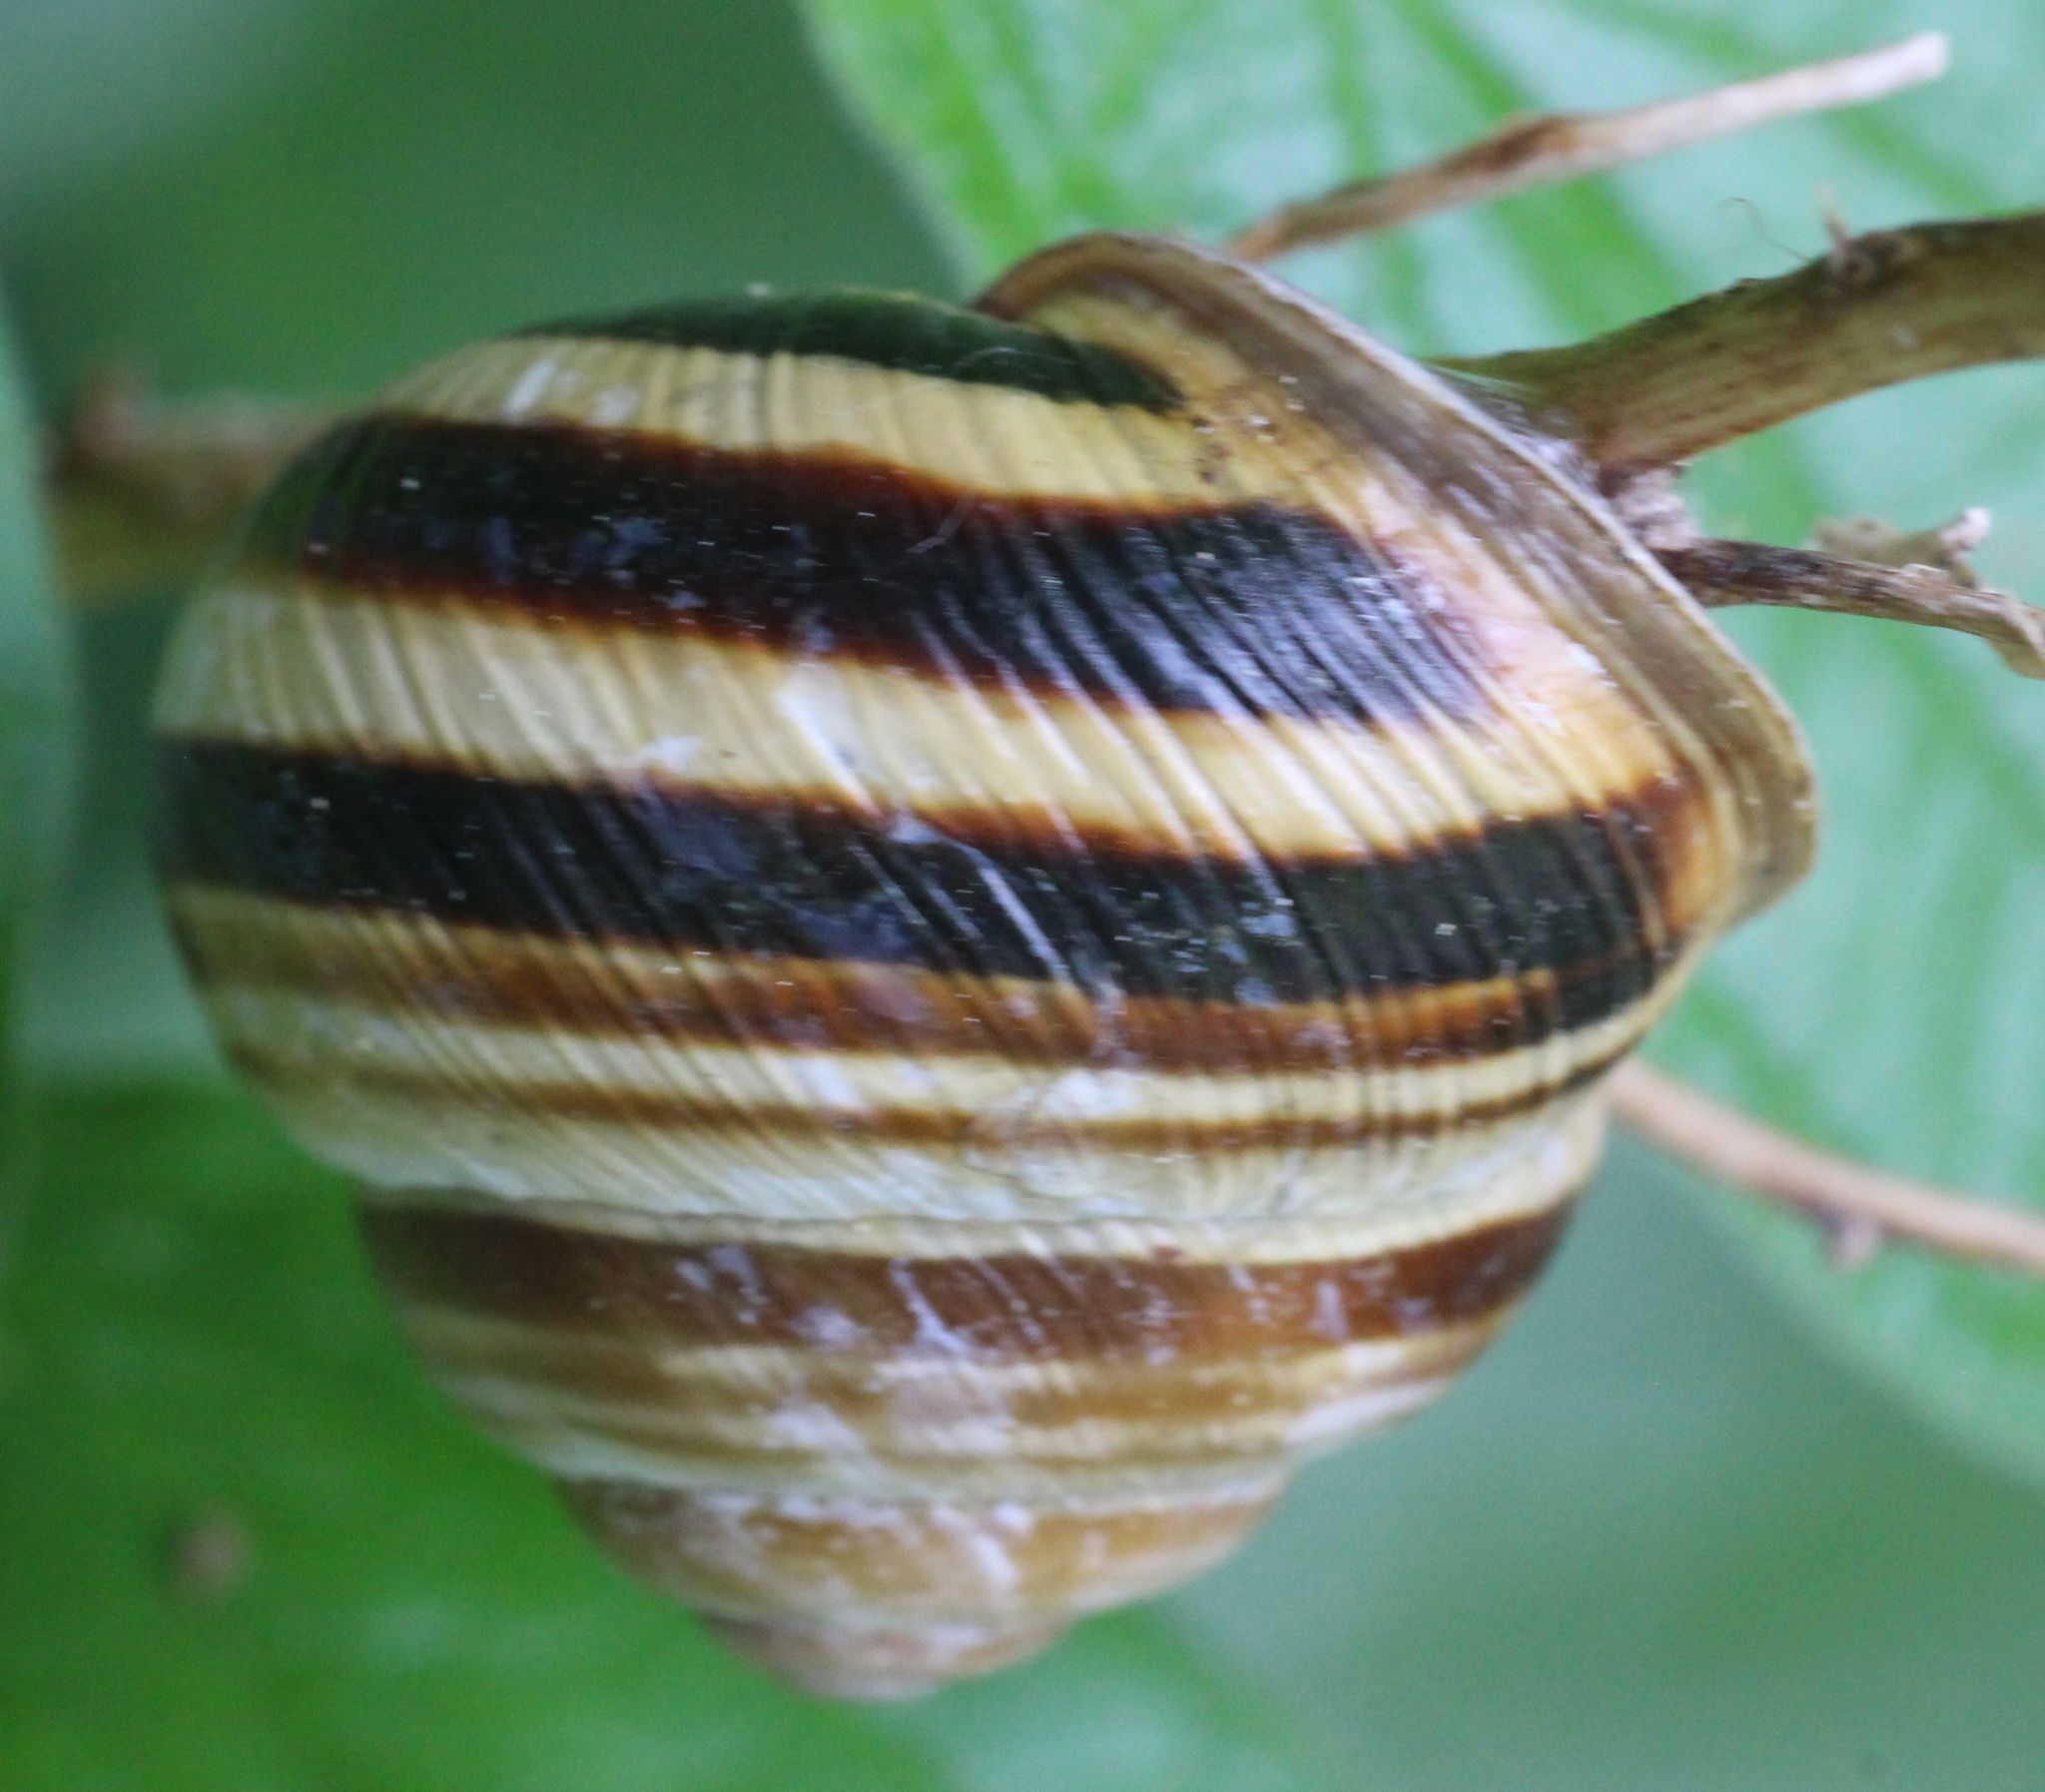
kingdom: Animalia
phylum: Mollusca
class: Gastropoda
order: Stylommatophora
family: Helicidae
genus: Caucasotachea
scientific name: Caucasotachea vindobonensis
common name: European helicid land snail
